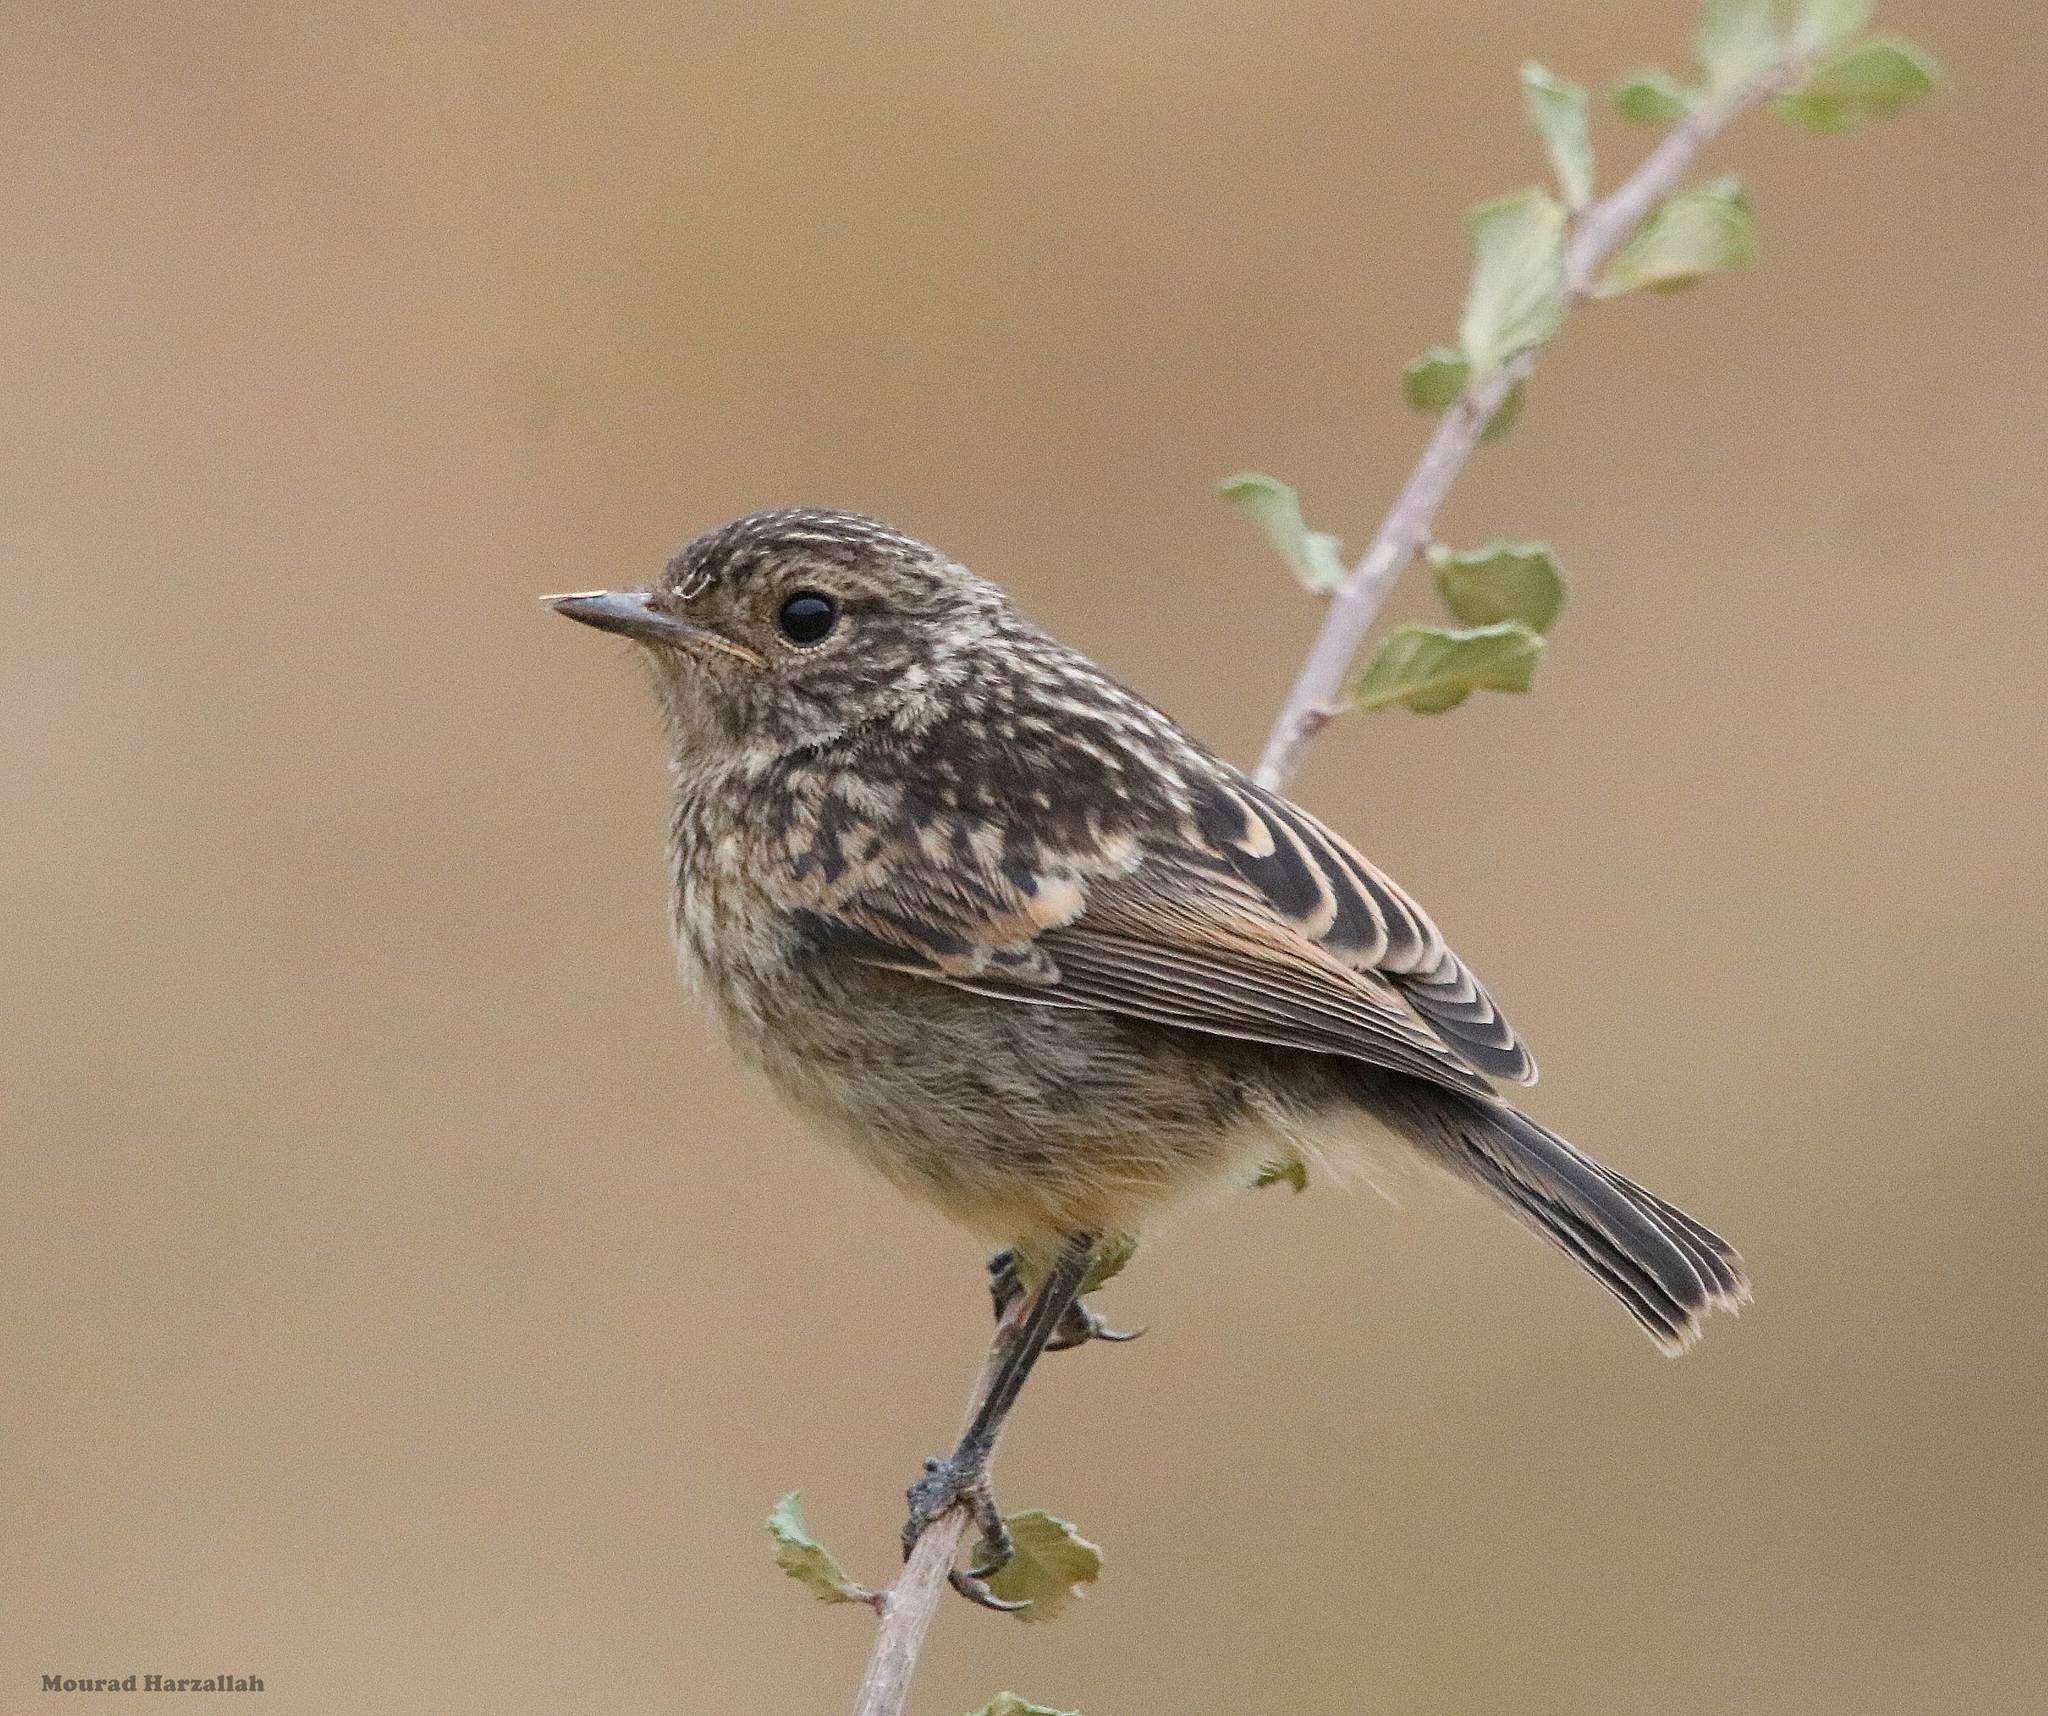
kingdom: Animalia
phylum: Chordata
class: Aves
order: Passeriformes
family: Muscicapidae
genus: Saxicola
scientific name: Saxicola rubicola
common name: European stonechat
